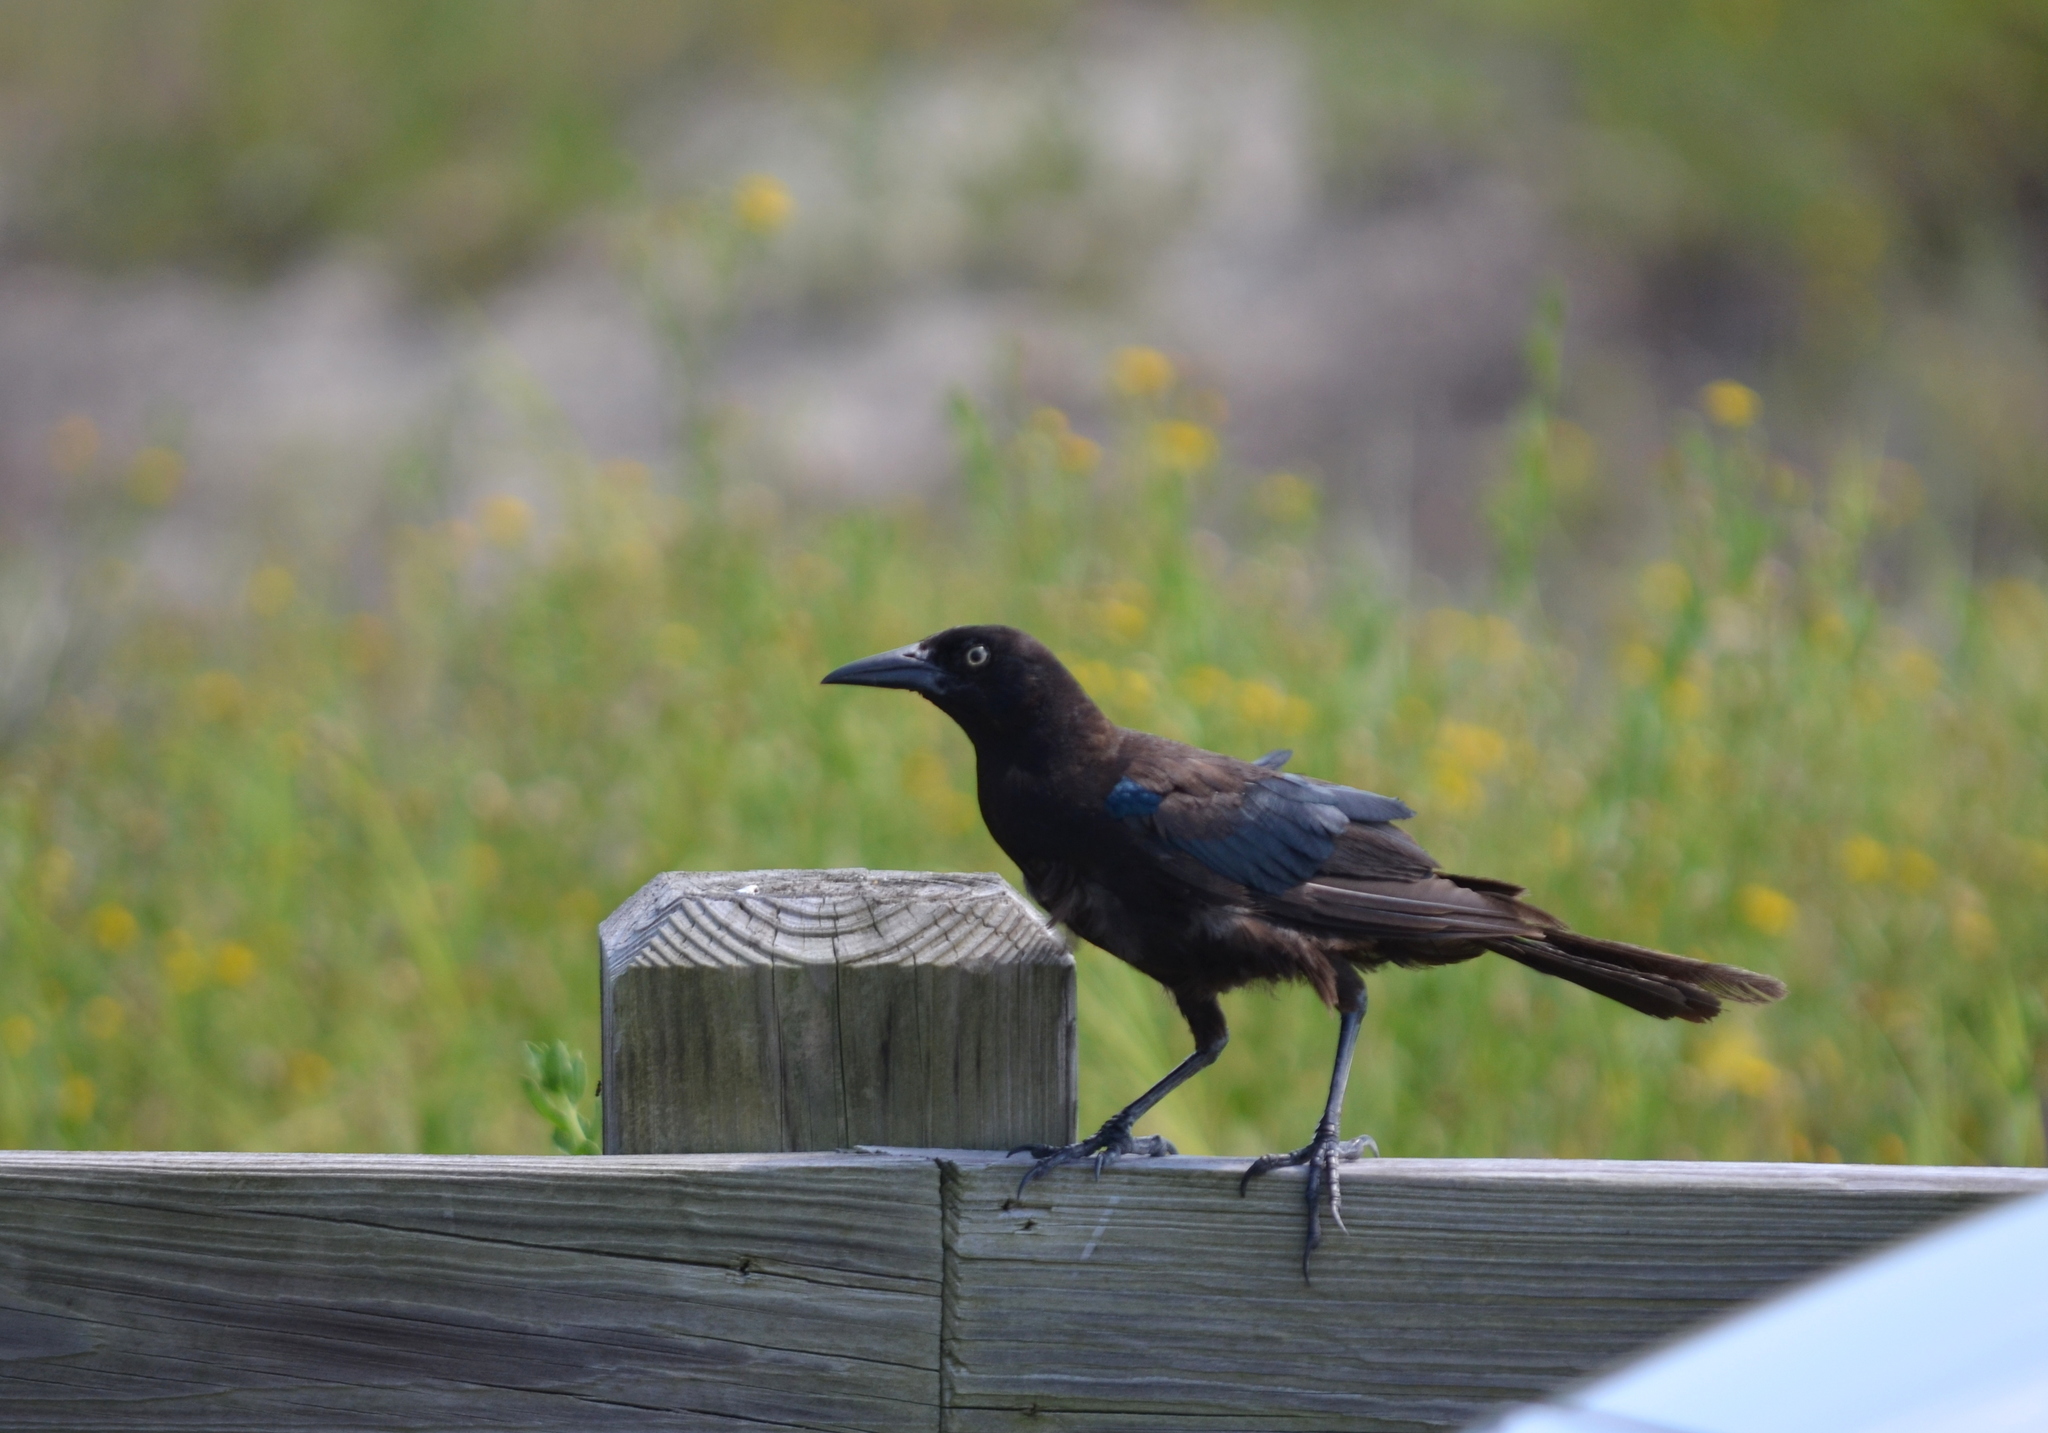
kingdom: Animalia
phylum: Chordata
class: Aves
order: Passeriformes
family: Icteridae
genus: Quiscalus
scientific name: Quiscalus major
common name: Boat-tailed grackle
